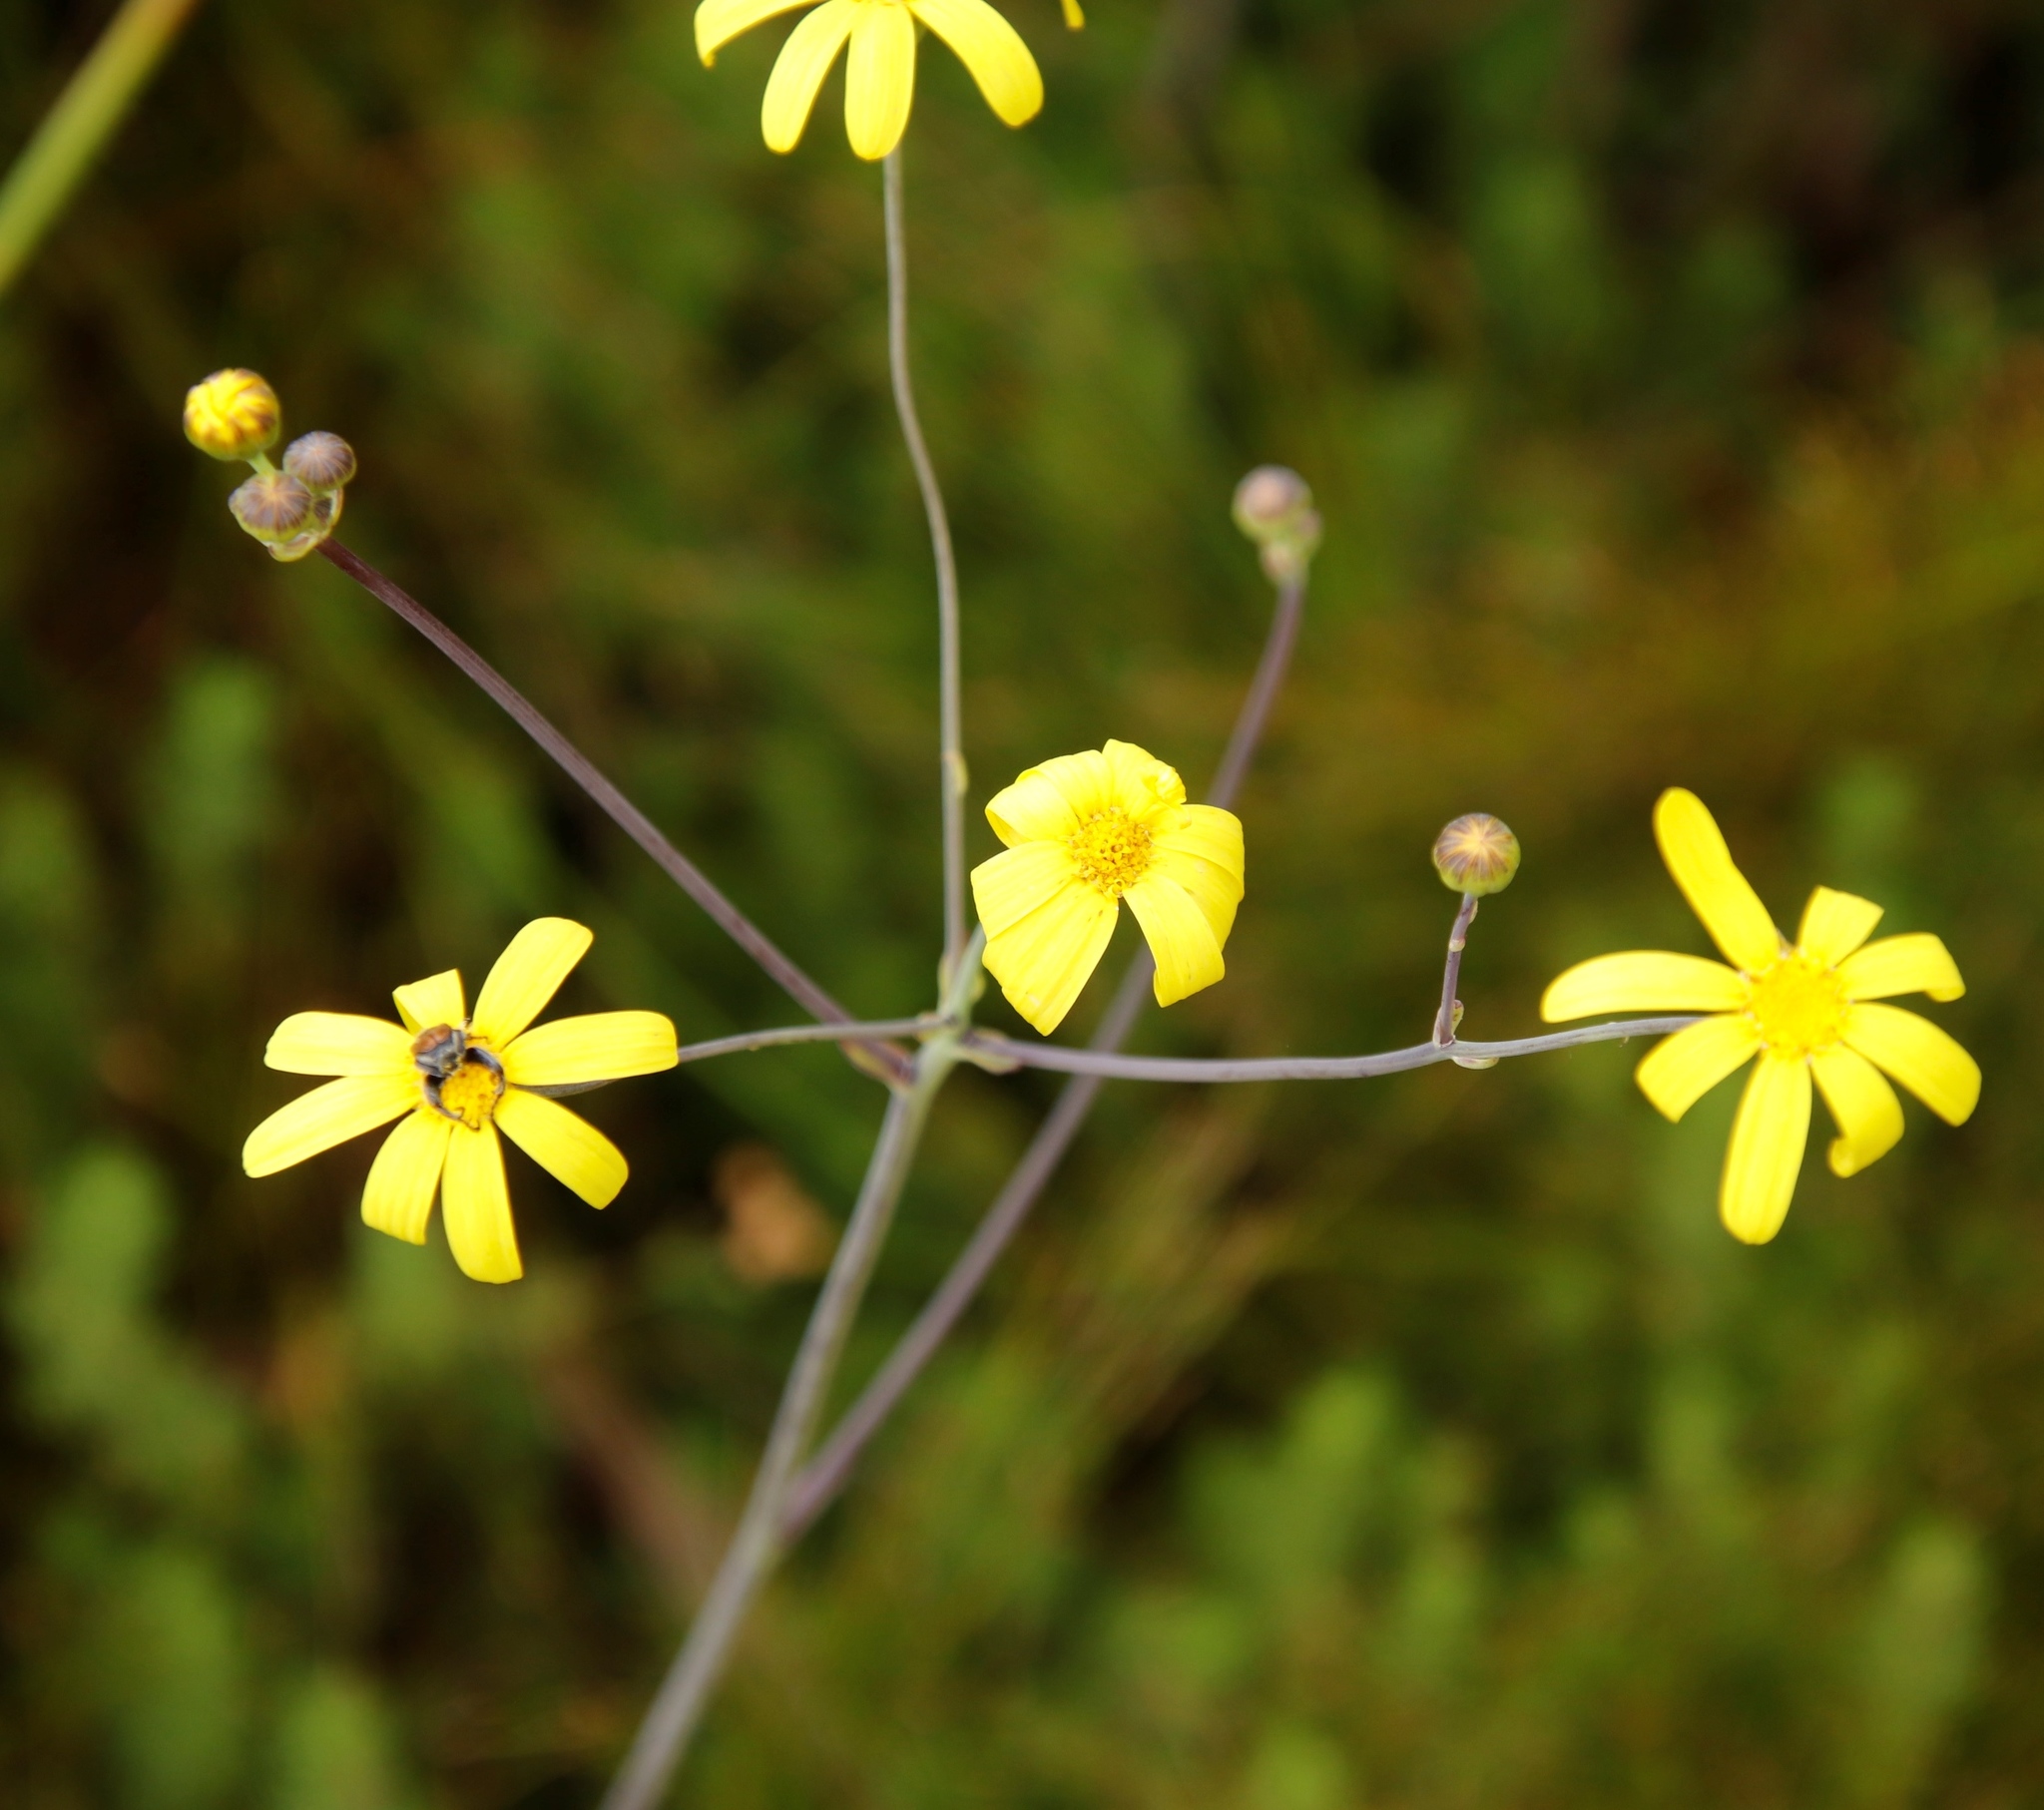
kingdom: Plantae
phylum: Tracheophyta
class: Magnoliopsida
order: Asterales
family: Asteraceae
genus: Othonna
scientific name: Othonna quinquedentata
